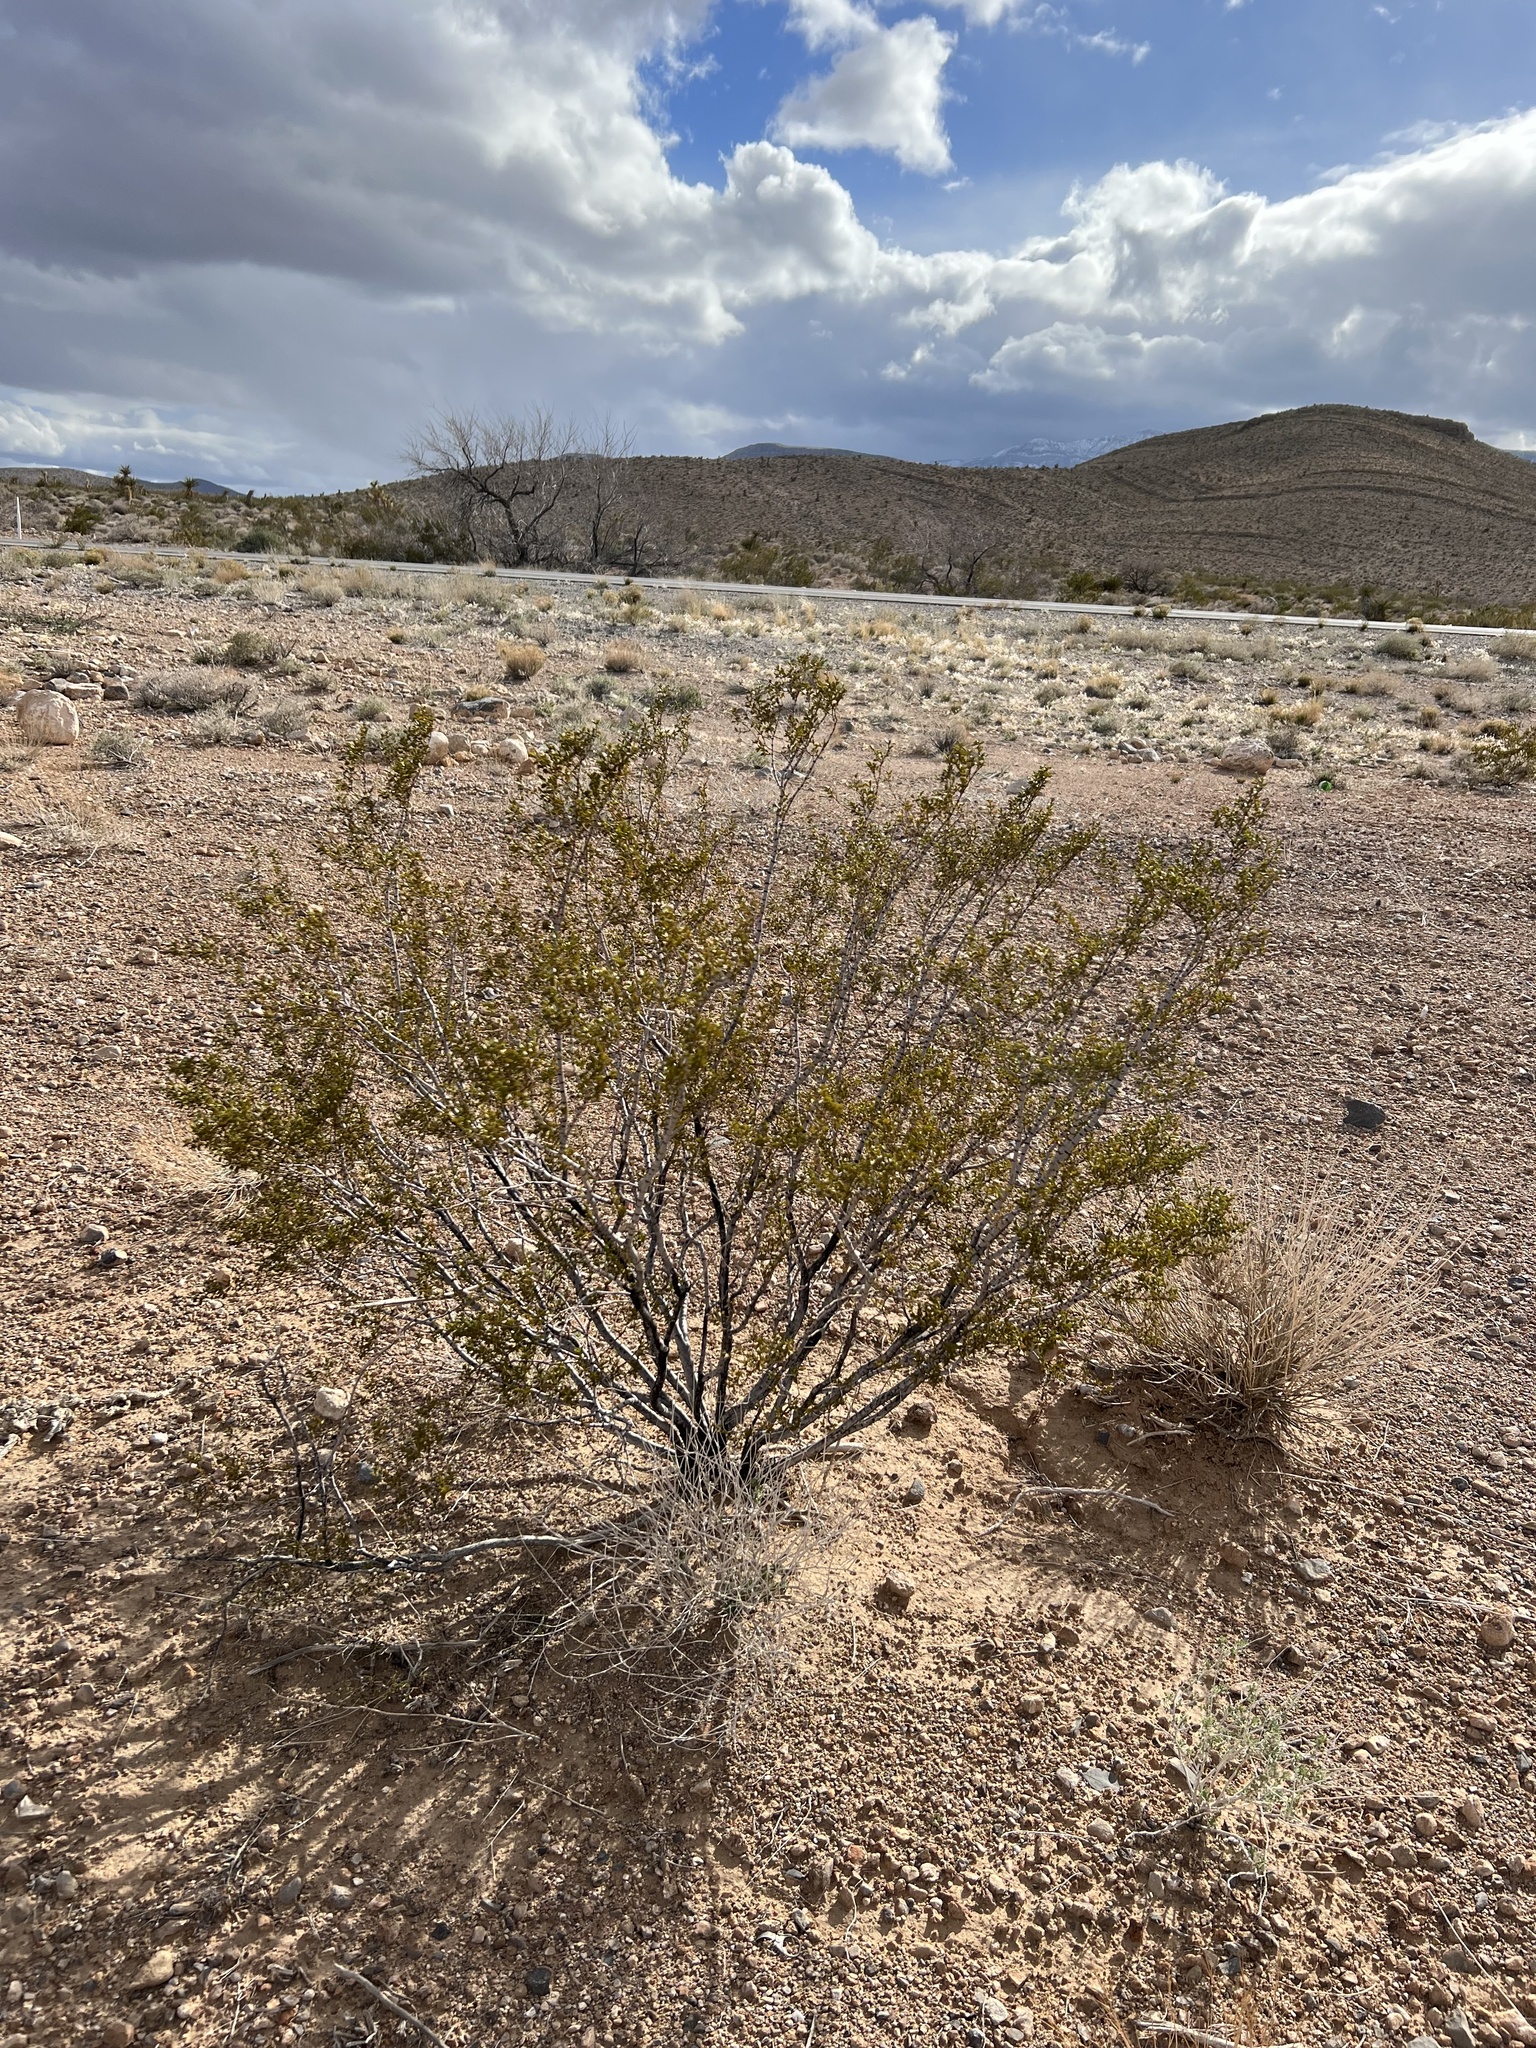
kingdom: Plantae
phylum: Tracheophyta
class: Magnoliopsida
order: Zygophyllales
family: Zygophyllaceae
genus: Larrea
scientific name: Larrea tridentata
